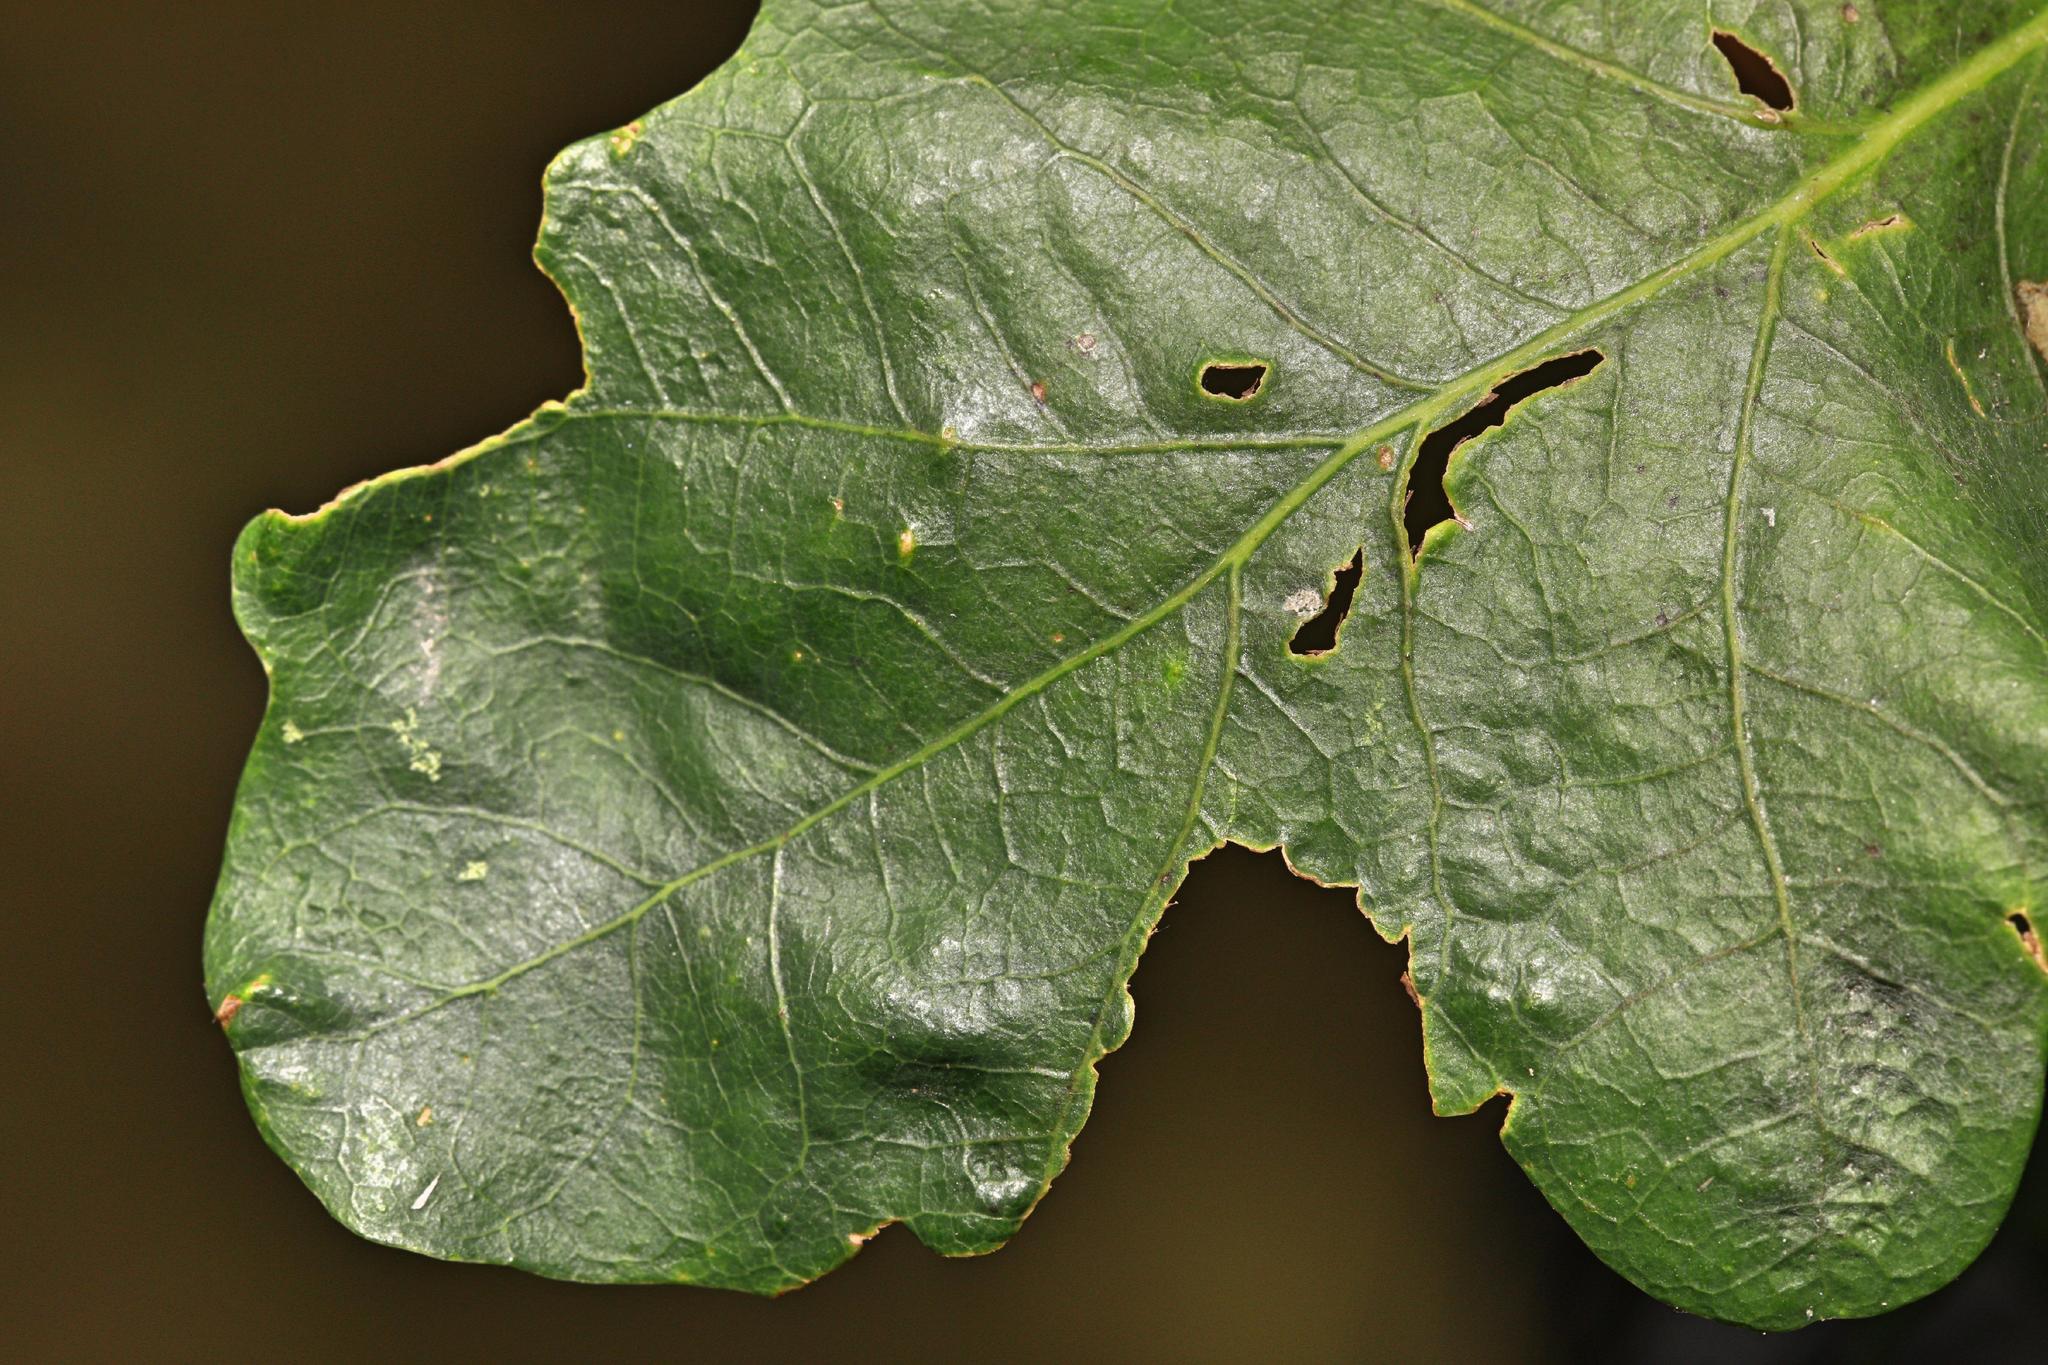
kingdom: Animalia
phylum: Arthropoda
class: Insecta
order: Hemiptera
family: Triozidae
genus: Trioza
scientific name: Trioza remota
